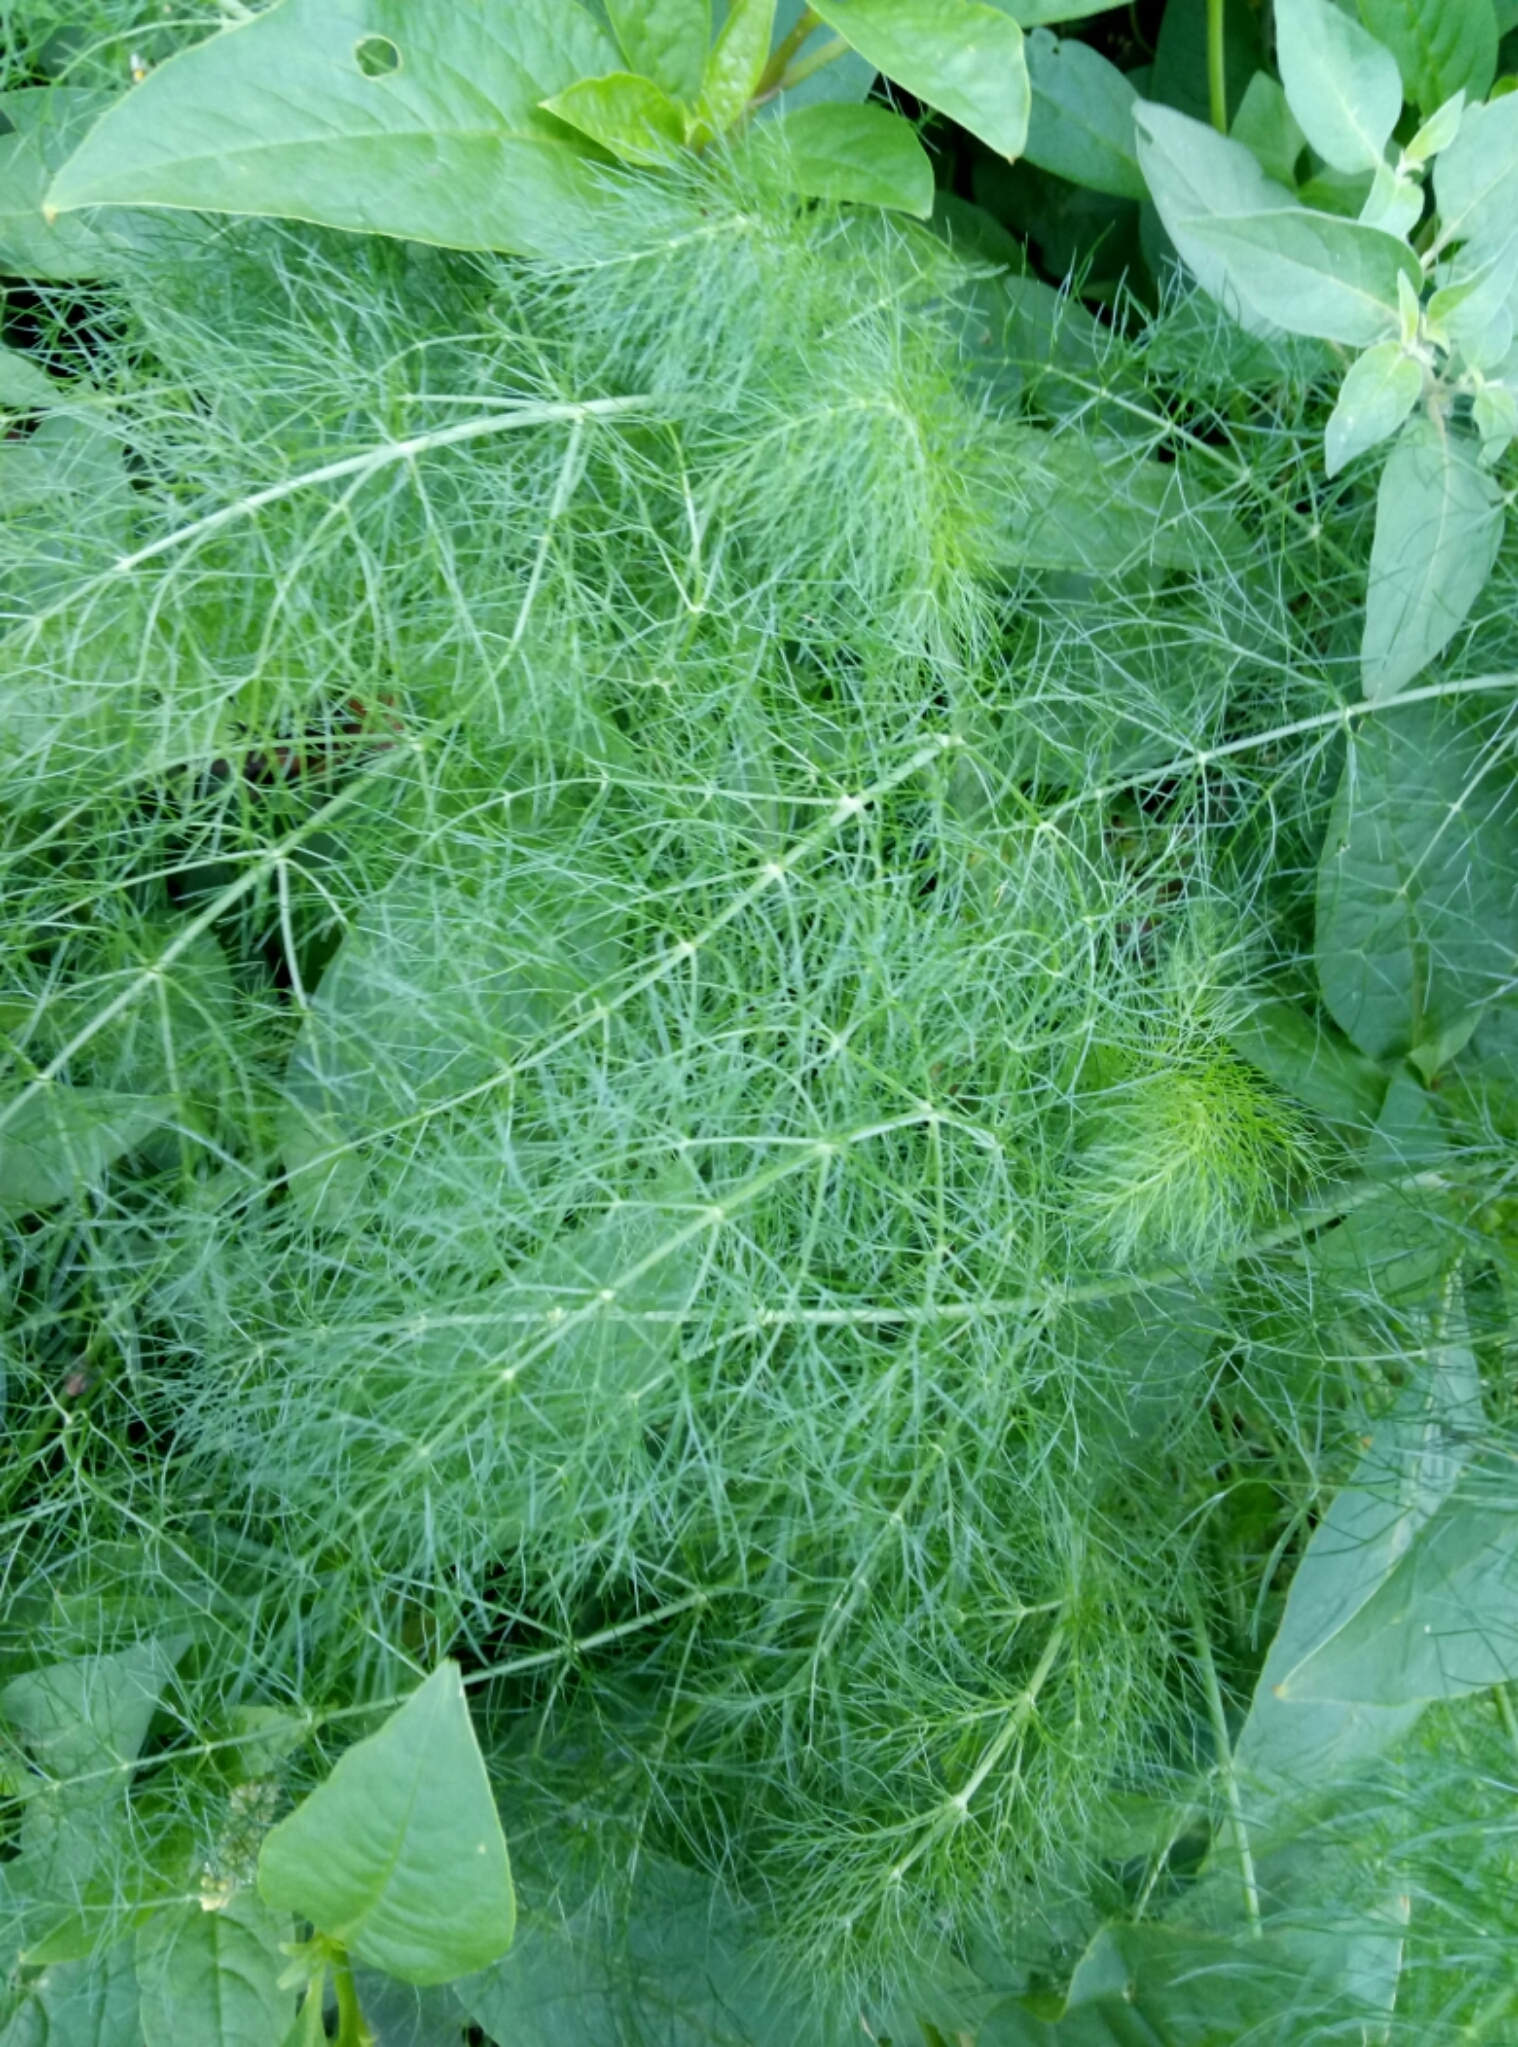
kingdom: Plantae
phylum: Tracheophyta
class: Magnoliopsida
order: Apiales
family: Apiaceae
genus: Foeniculum
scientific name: Foeniculum vulgare
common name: Fennel
